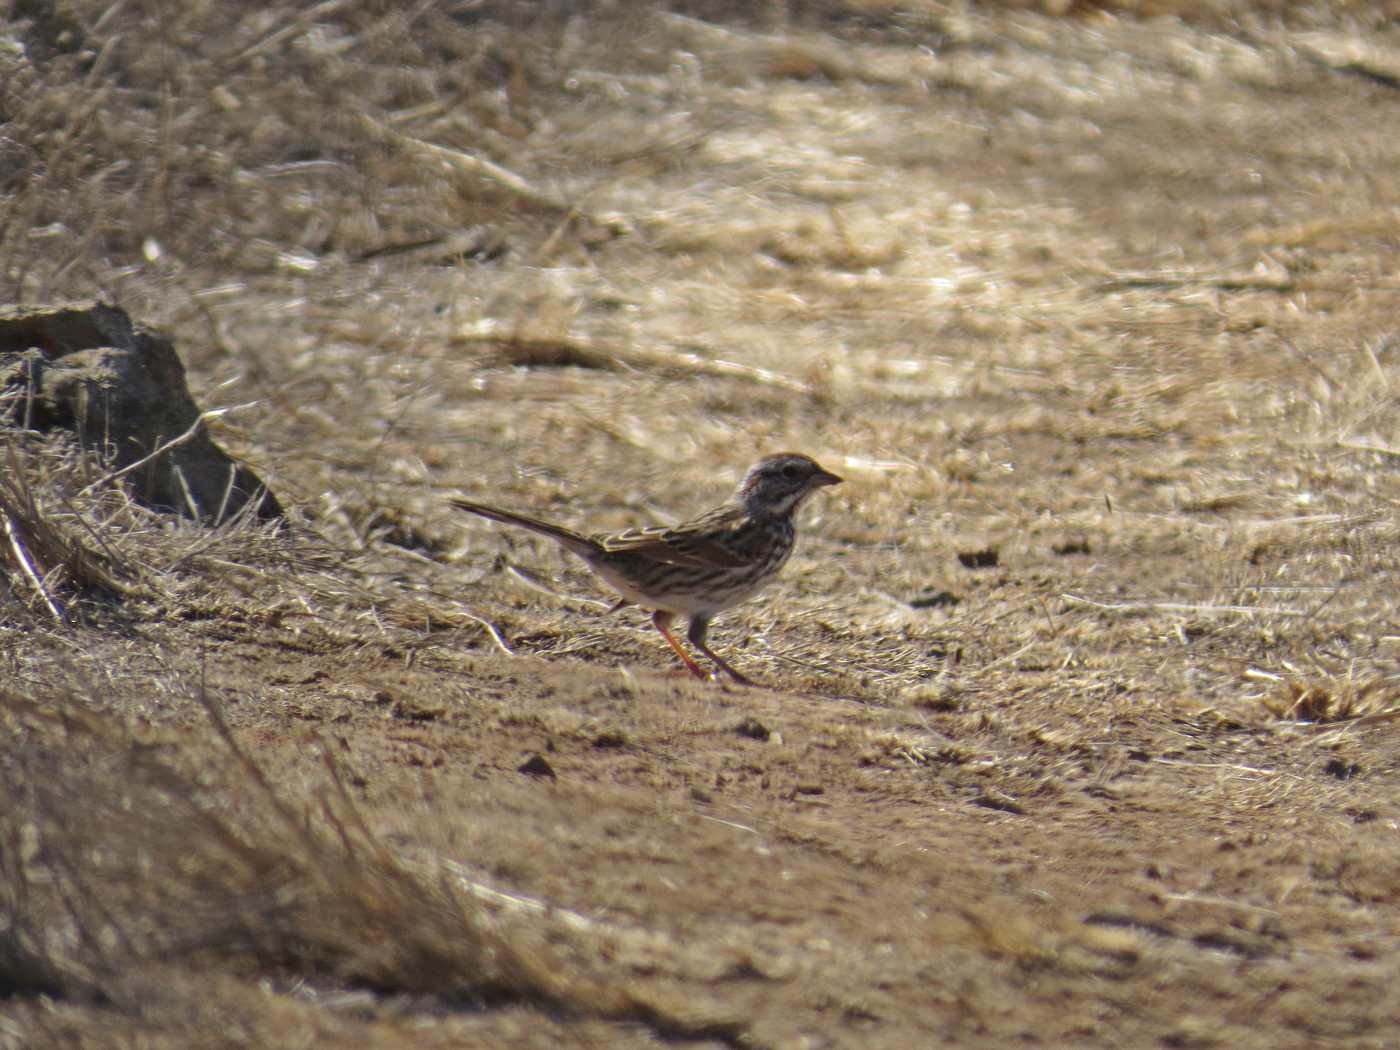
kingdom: Animalia
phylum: Chordata
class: Aves
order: Passeriformes
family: Passerellidae
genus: Melospiza
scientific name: Melospiza melodia
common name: Song sparrow
